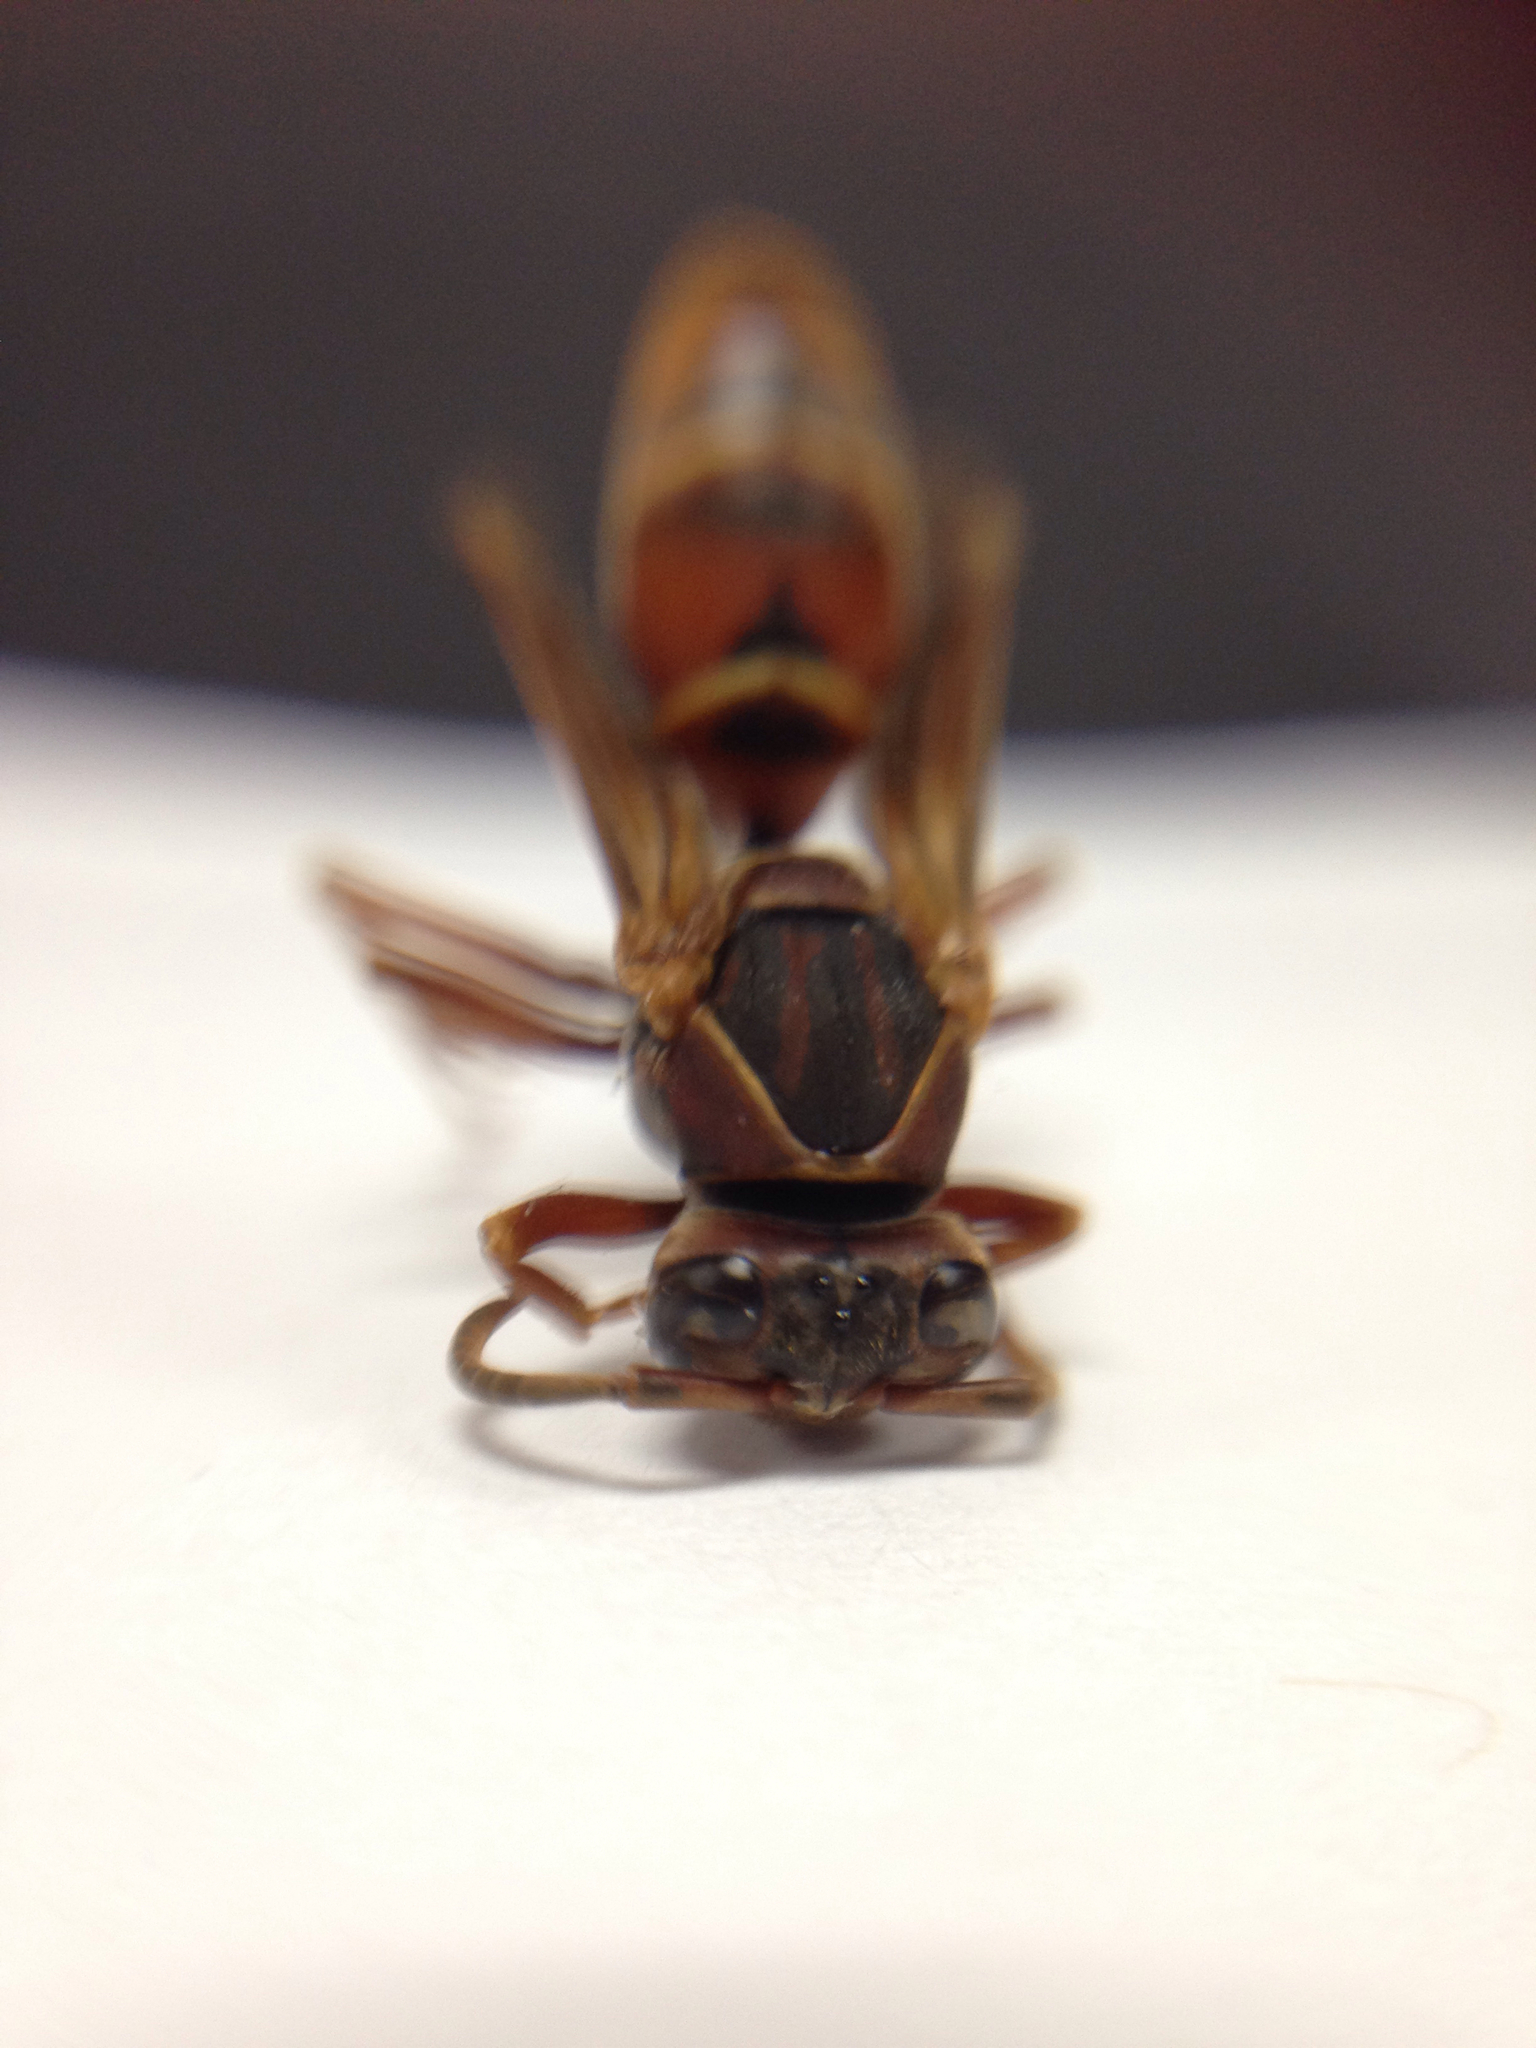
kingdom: Animalia
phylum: Arthropoda
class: Insecta
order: Hymenoptera
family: Eumenidae
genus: Polistes
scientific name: Polistes fuscatus
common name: Dark paper wasp
